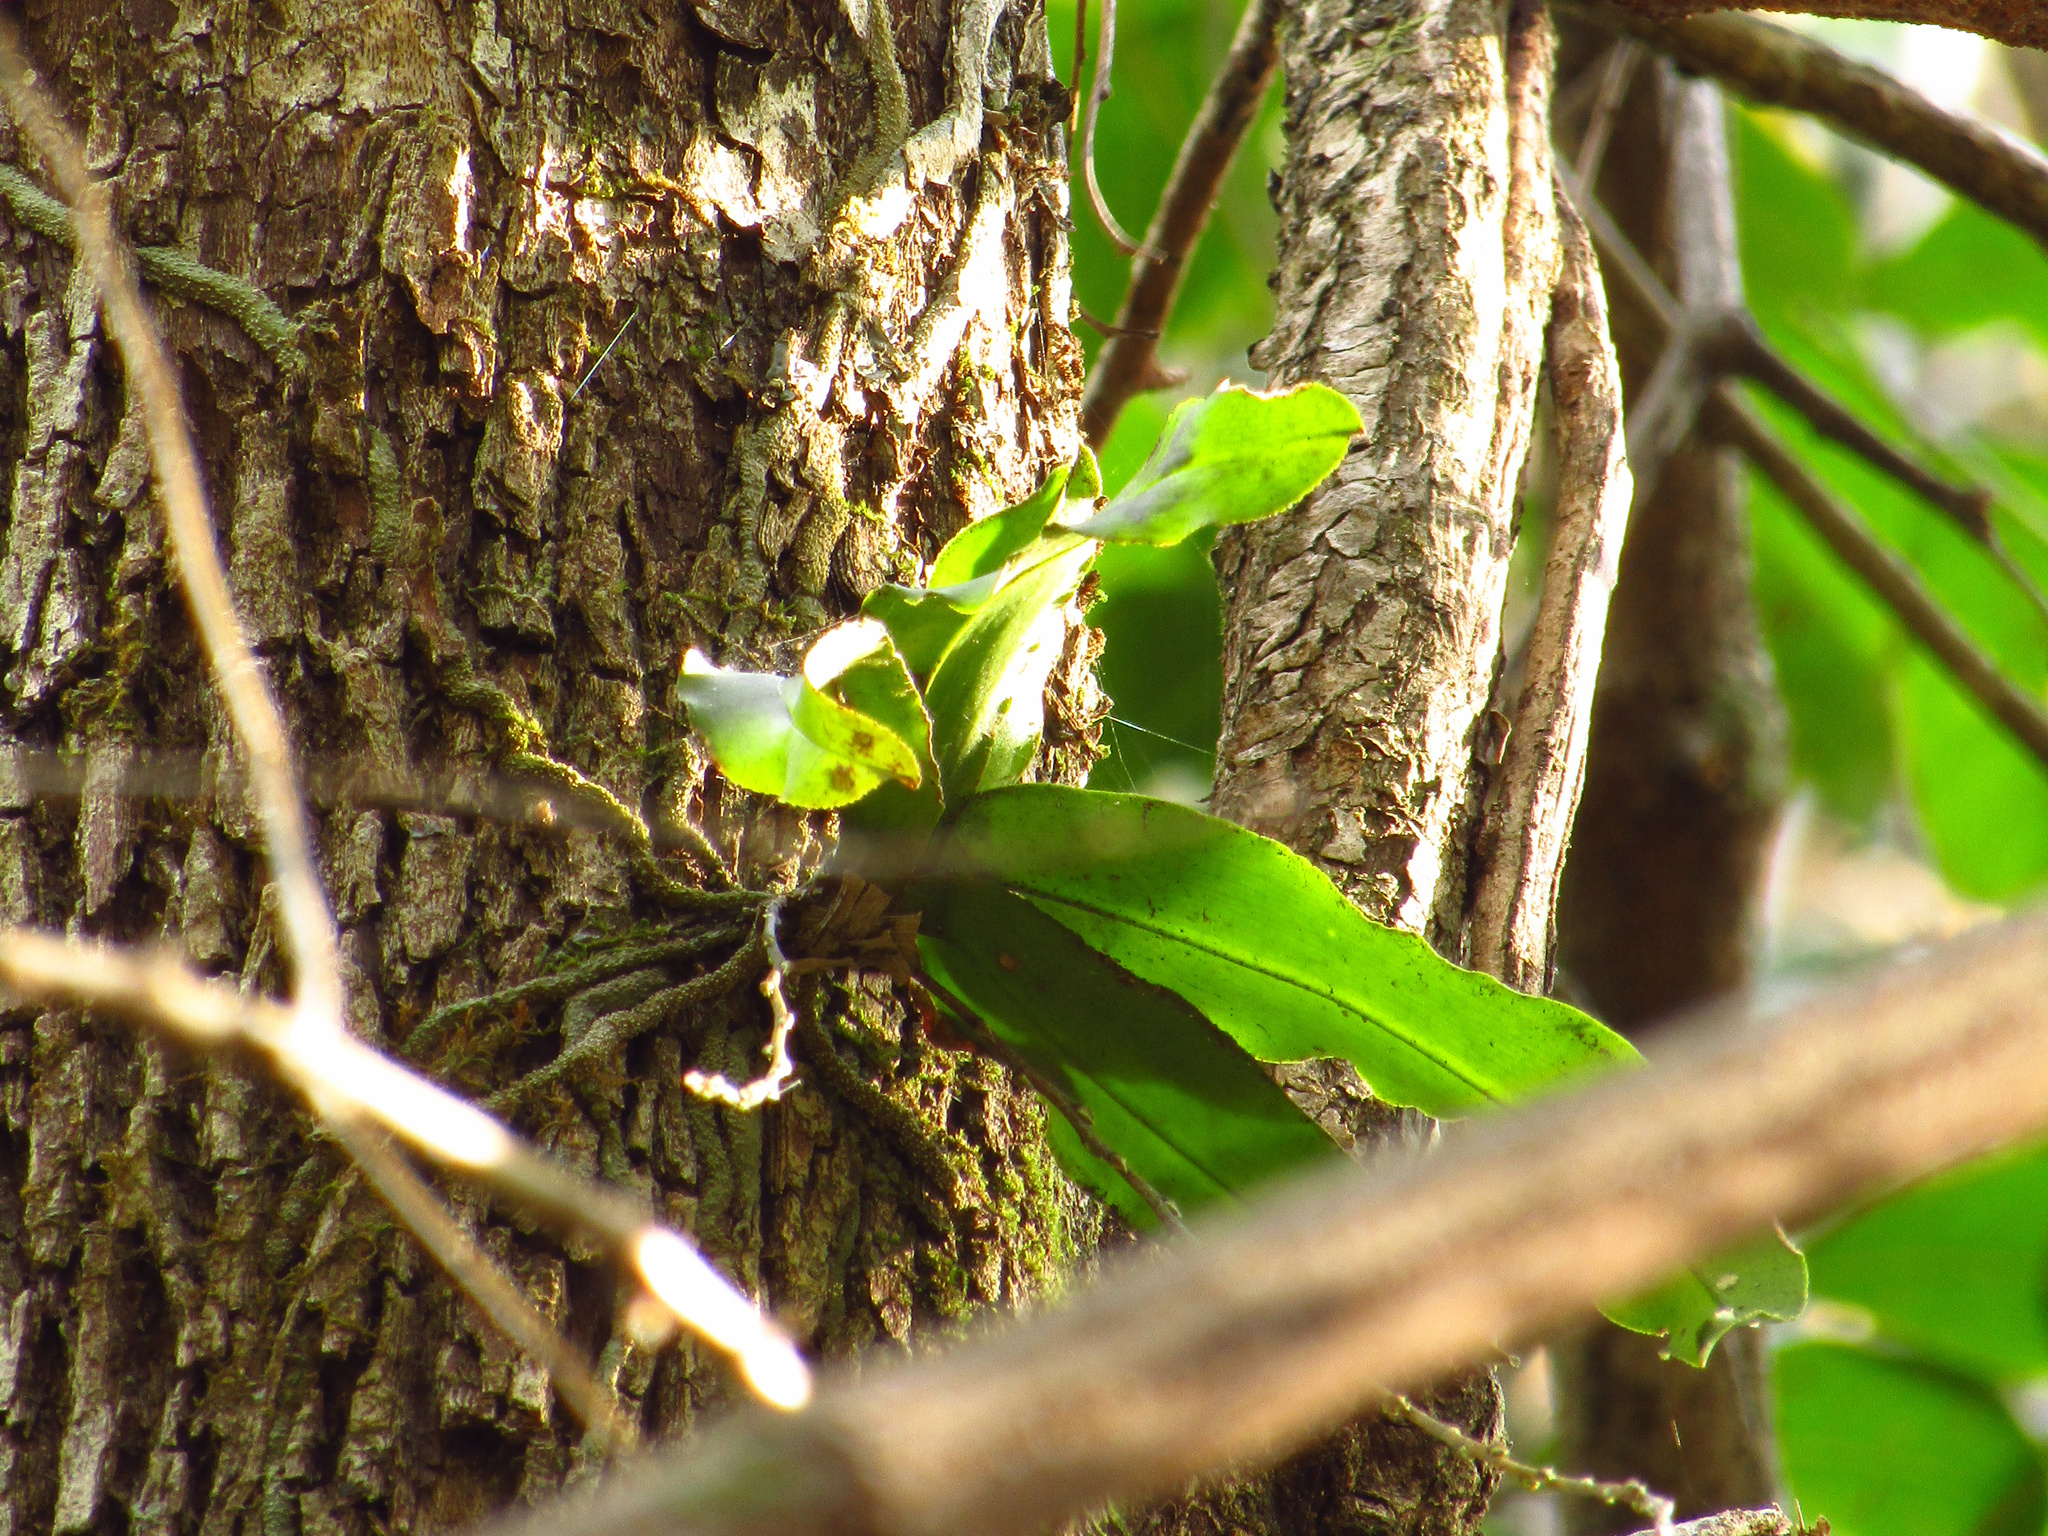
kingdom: Plantae
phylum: Tracheophyta
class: Liliopsida
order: Asparagales
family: Orchidaceae
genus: Rhinerrhiza
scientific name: Rhinerrhiza divitiflora
